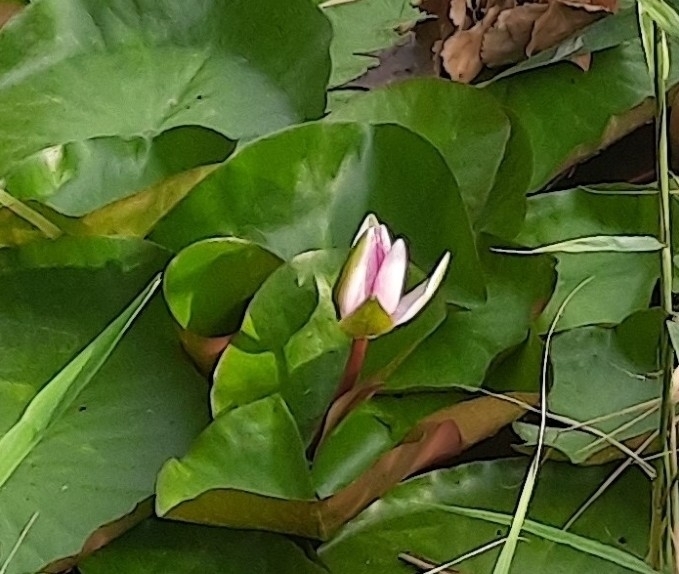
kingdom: Plantae
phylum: Tracheophyta
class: Magnoliopsida
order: Nymphaeales
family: Nymphaeaceae
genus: Nymphaea
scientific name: Nymphaea marliacea
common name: Water-lily
